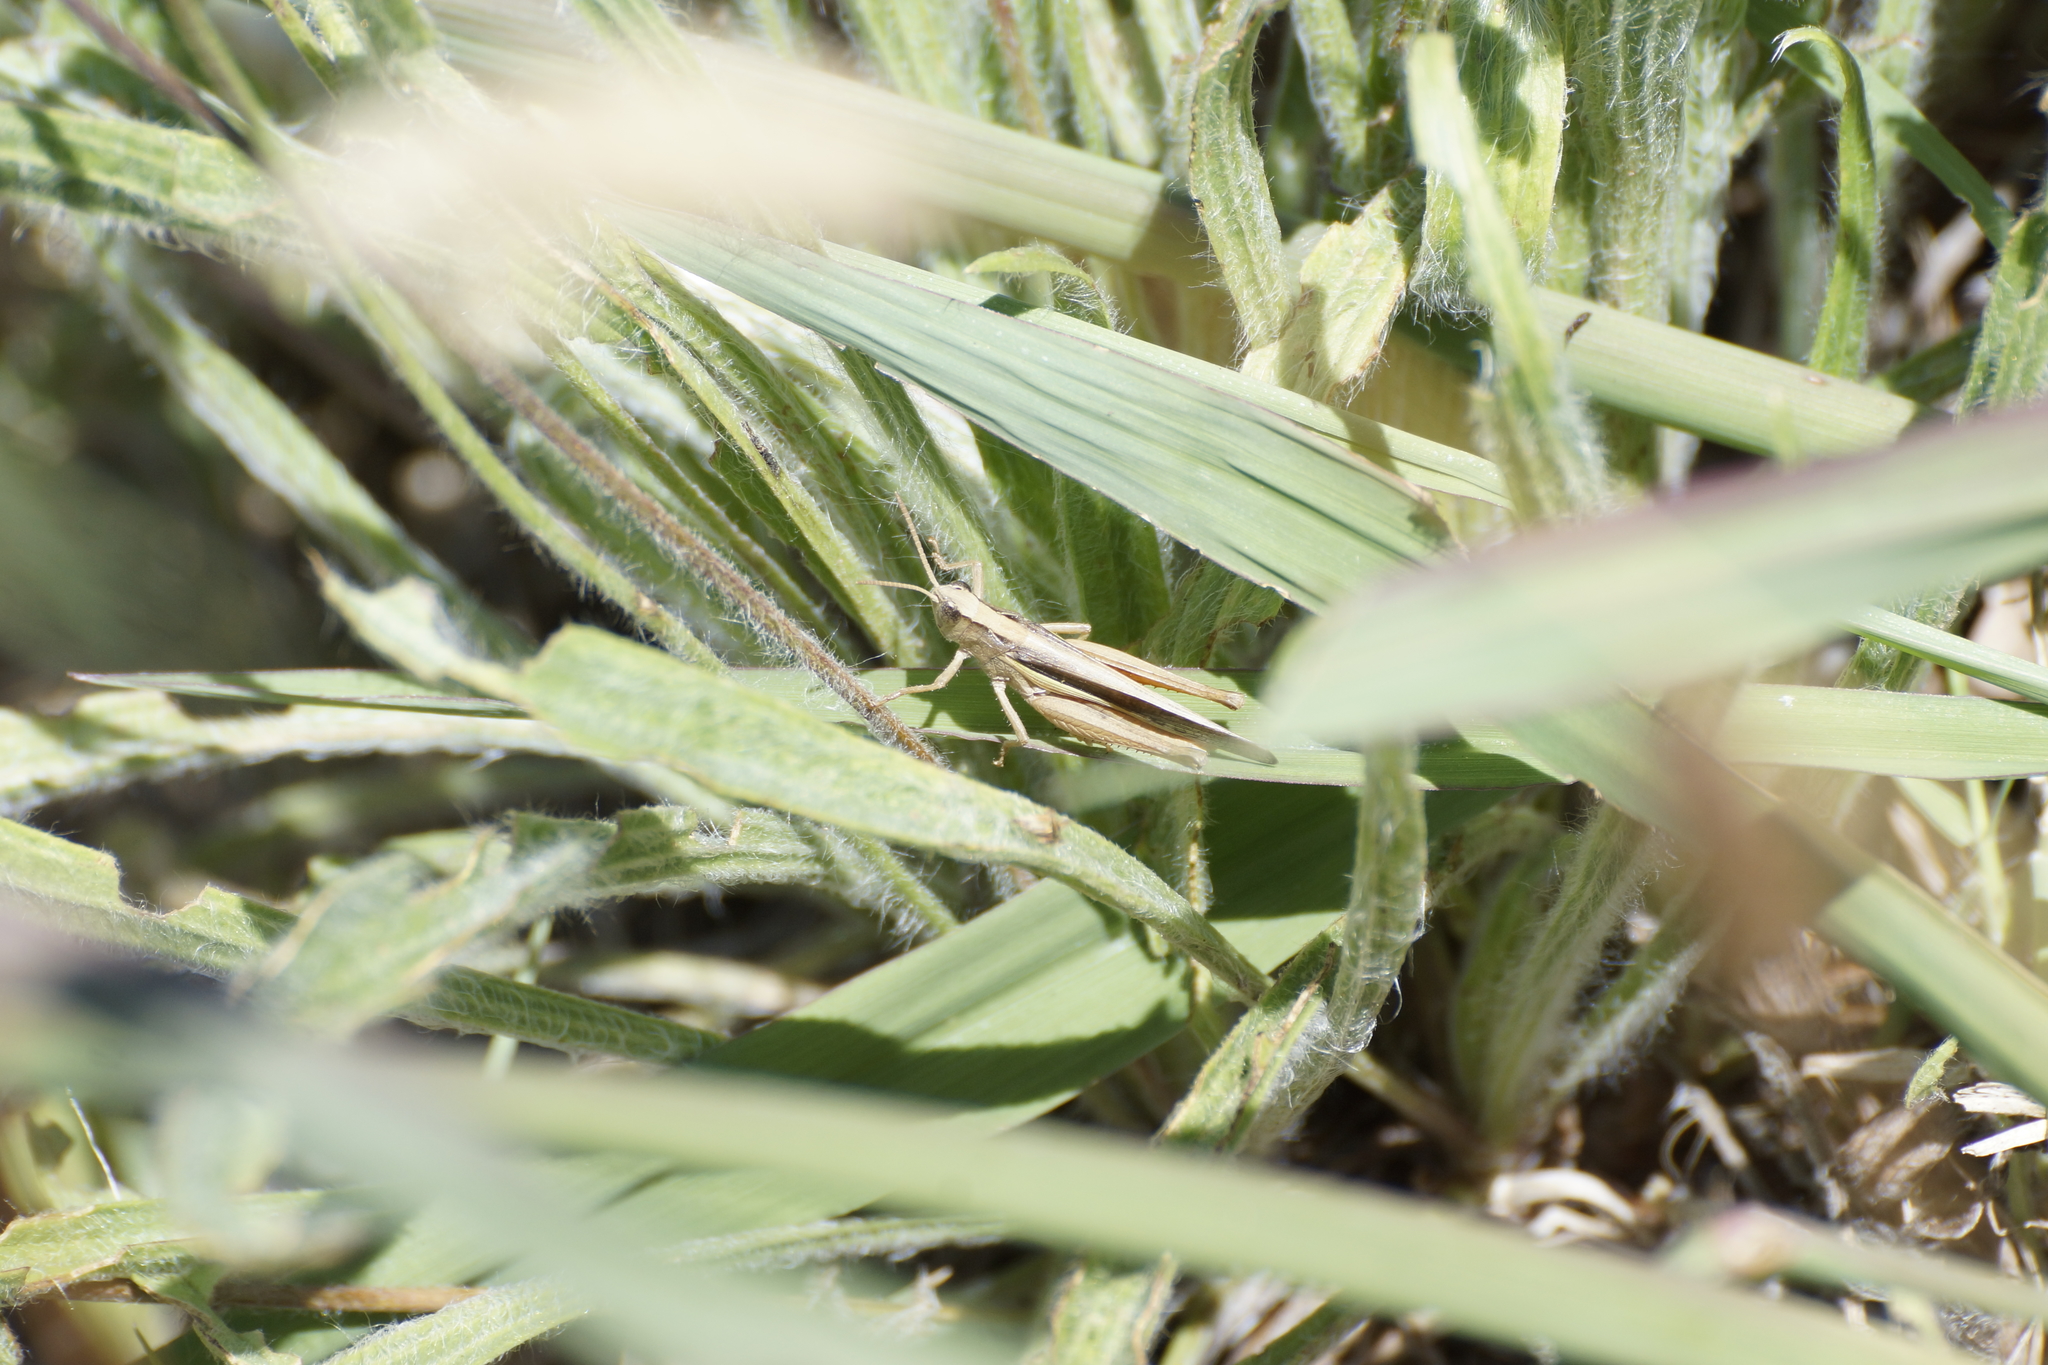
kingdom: Animalia
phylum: Arthropoda
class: Insecta
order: Orthoptera
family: Acrididae
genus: Schizobothrus
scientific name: Schizobothrus flavovittatus
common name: Disappearing grasshopper
